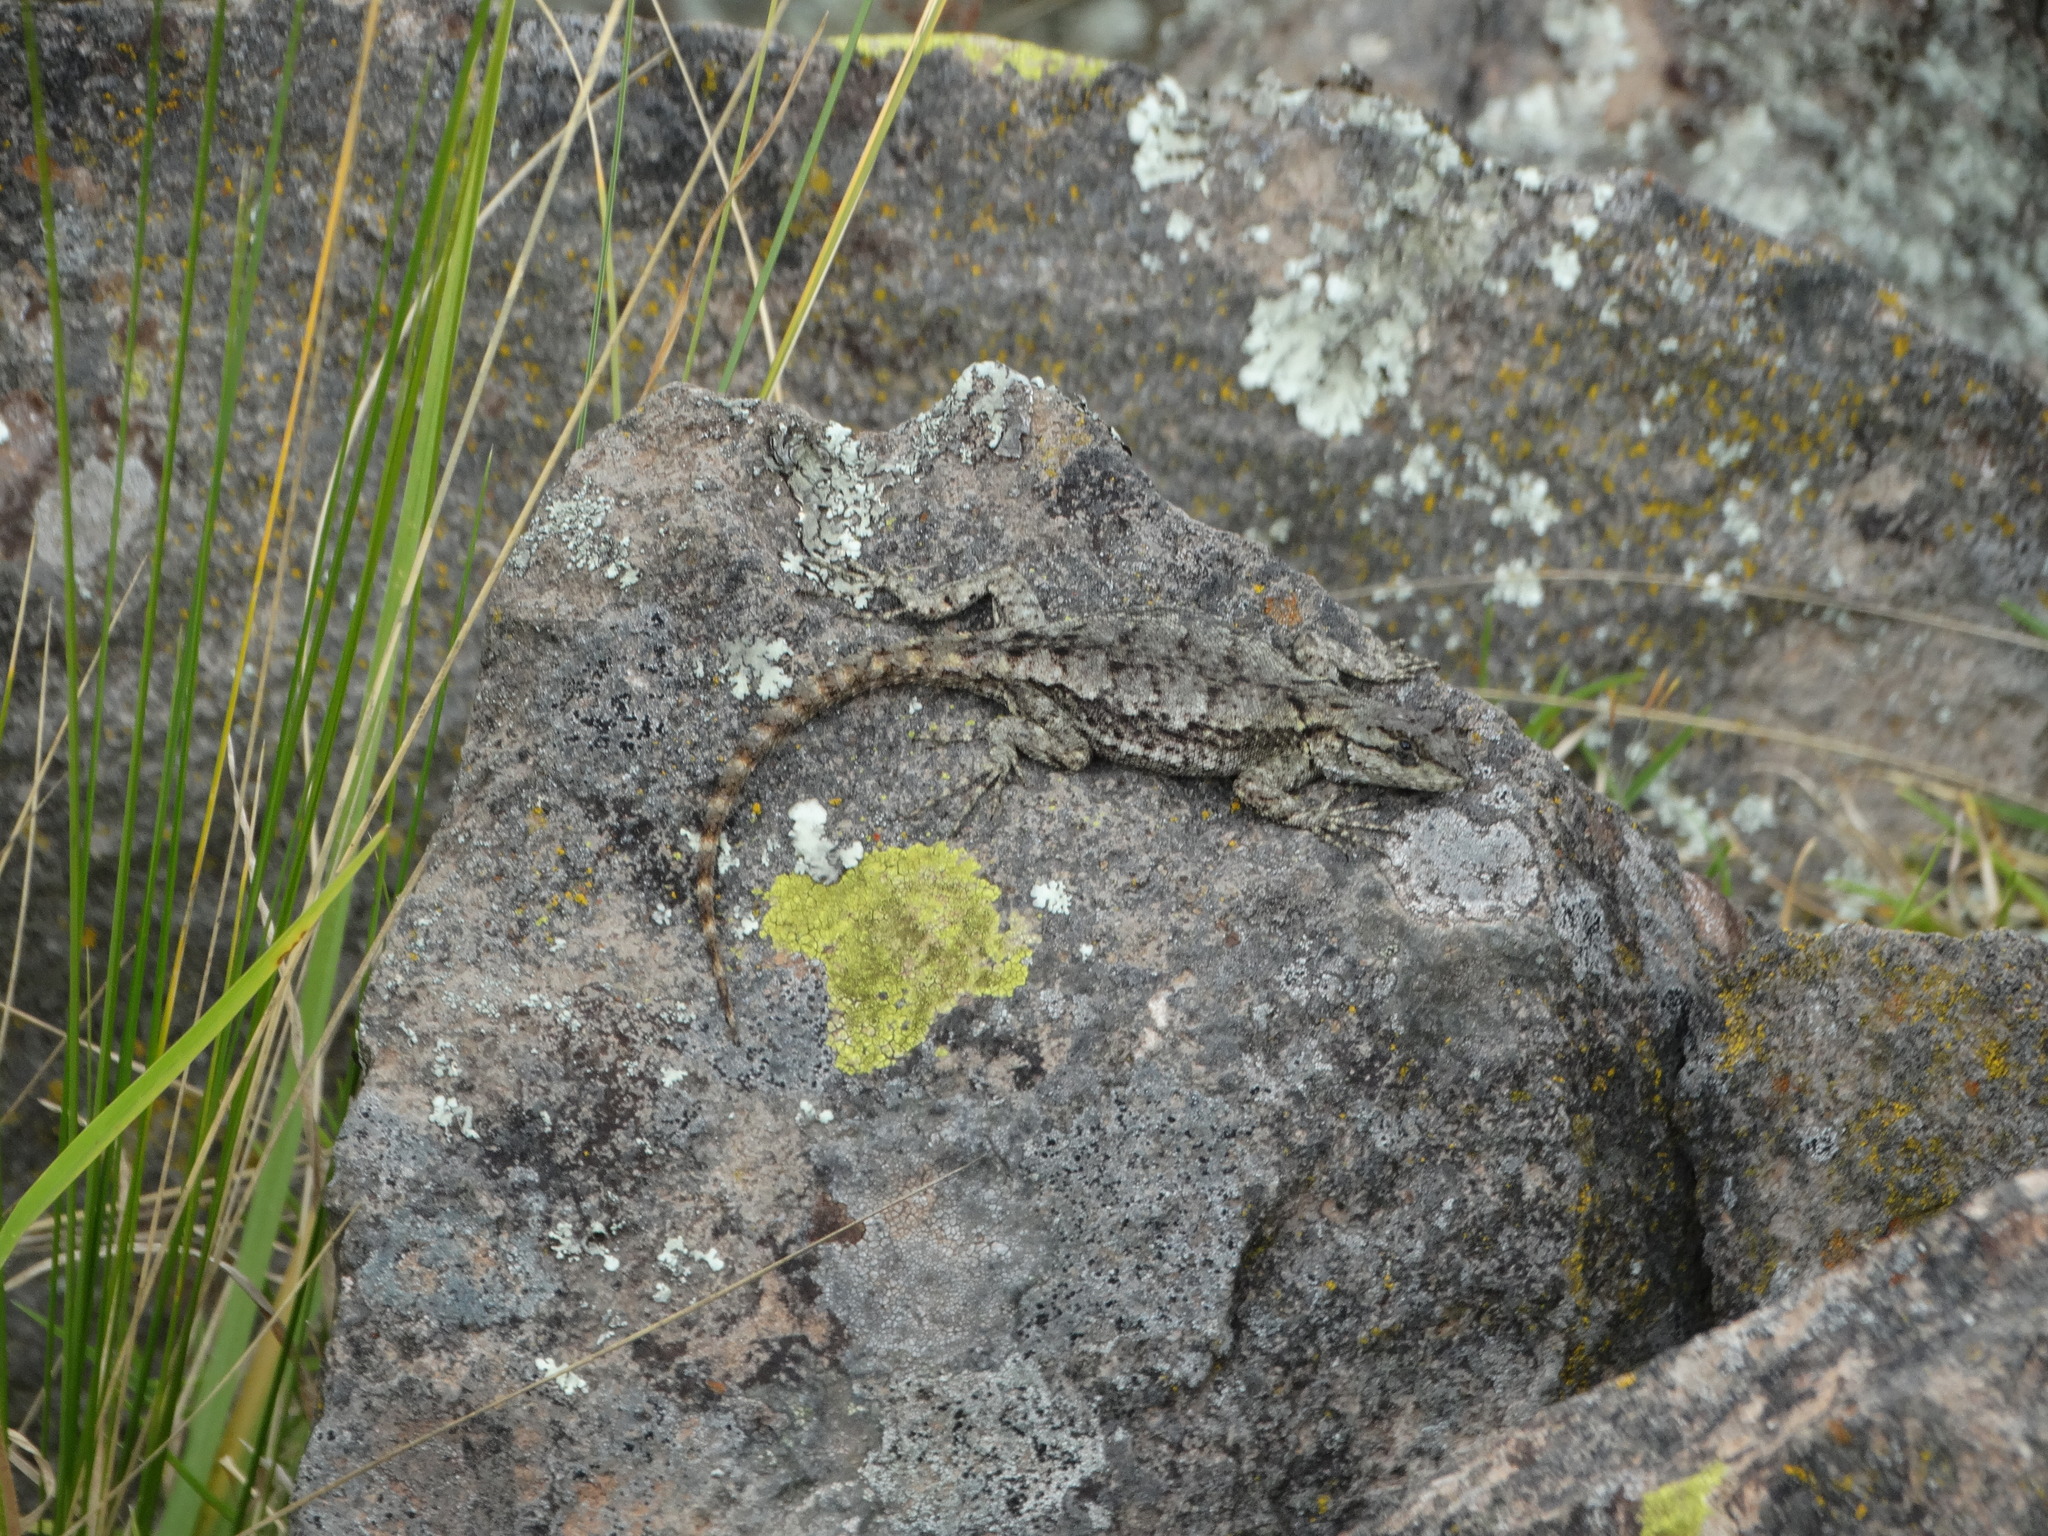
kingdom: Animalia
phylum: Chordata
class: Squamata
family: Phrynosomatidae
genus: Sceloporus
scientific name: Sceloporus grammicus
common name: Mesquite lizard
